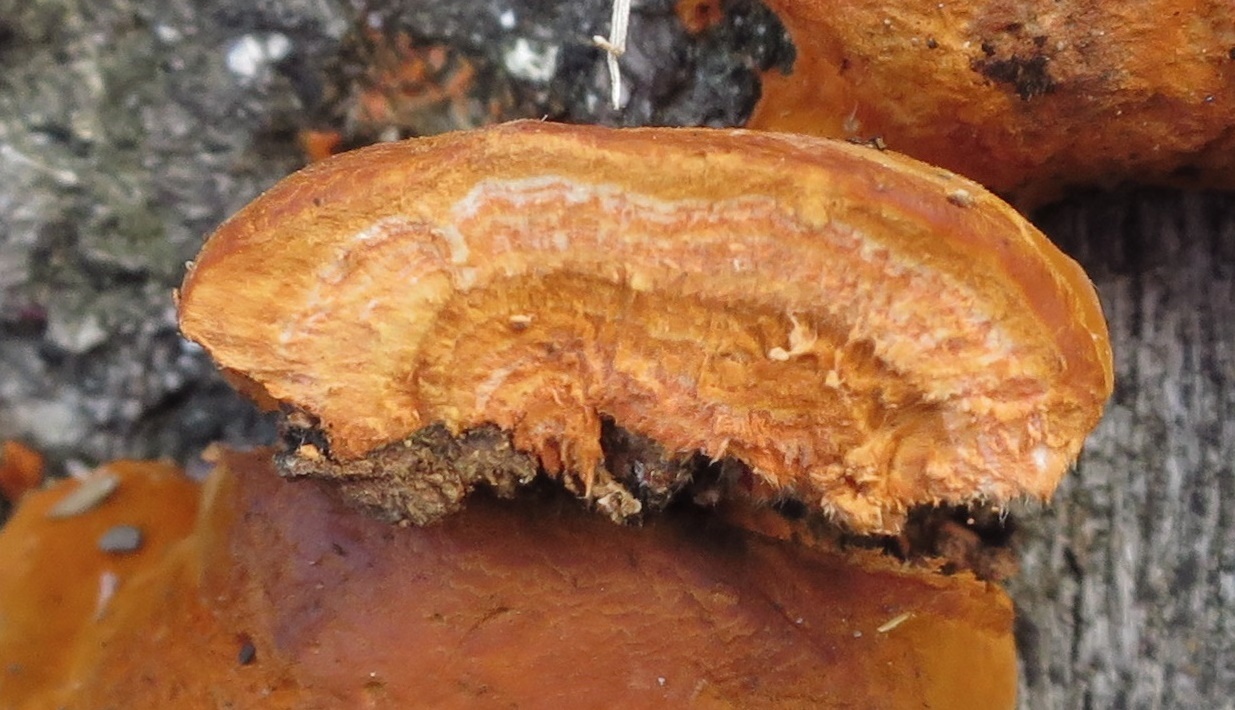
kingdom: Fungi
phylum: Basidiomycota
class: Agaricomycetes
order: Polyporales
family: Polyporaceae
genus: Trametes
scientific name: Trametes coccinea
